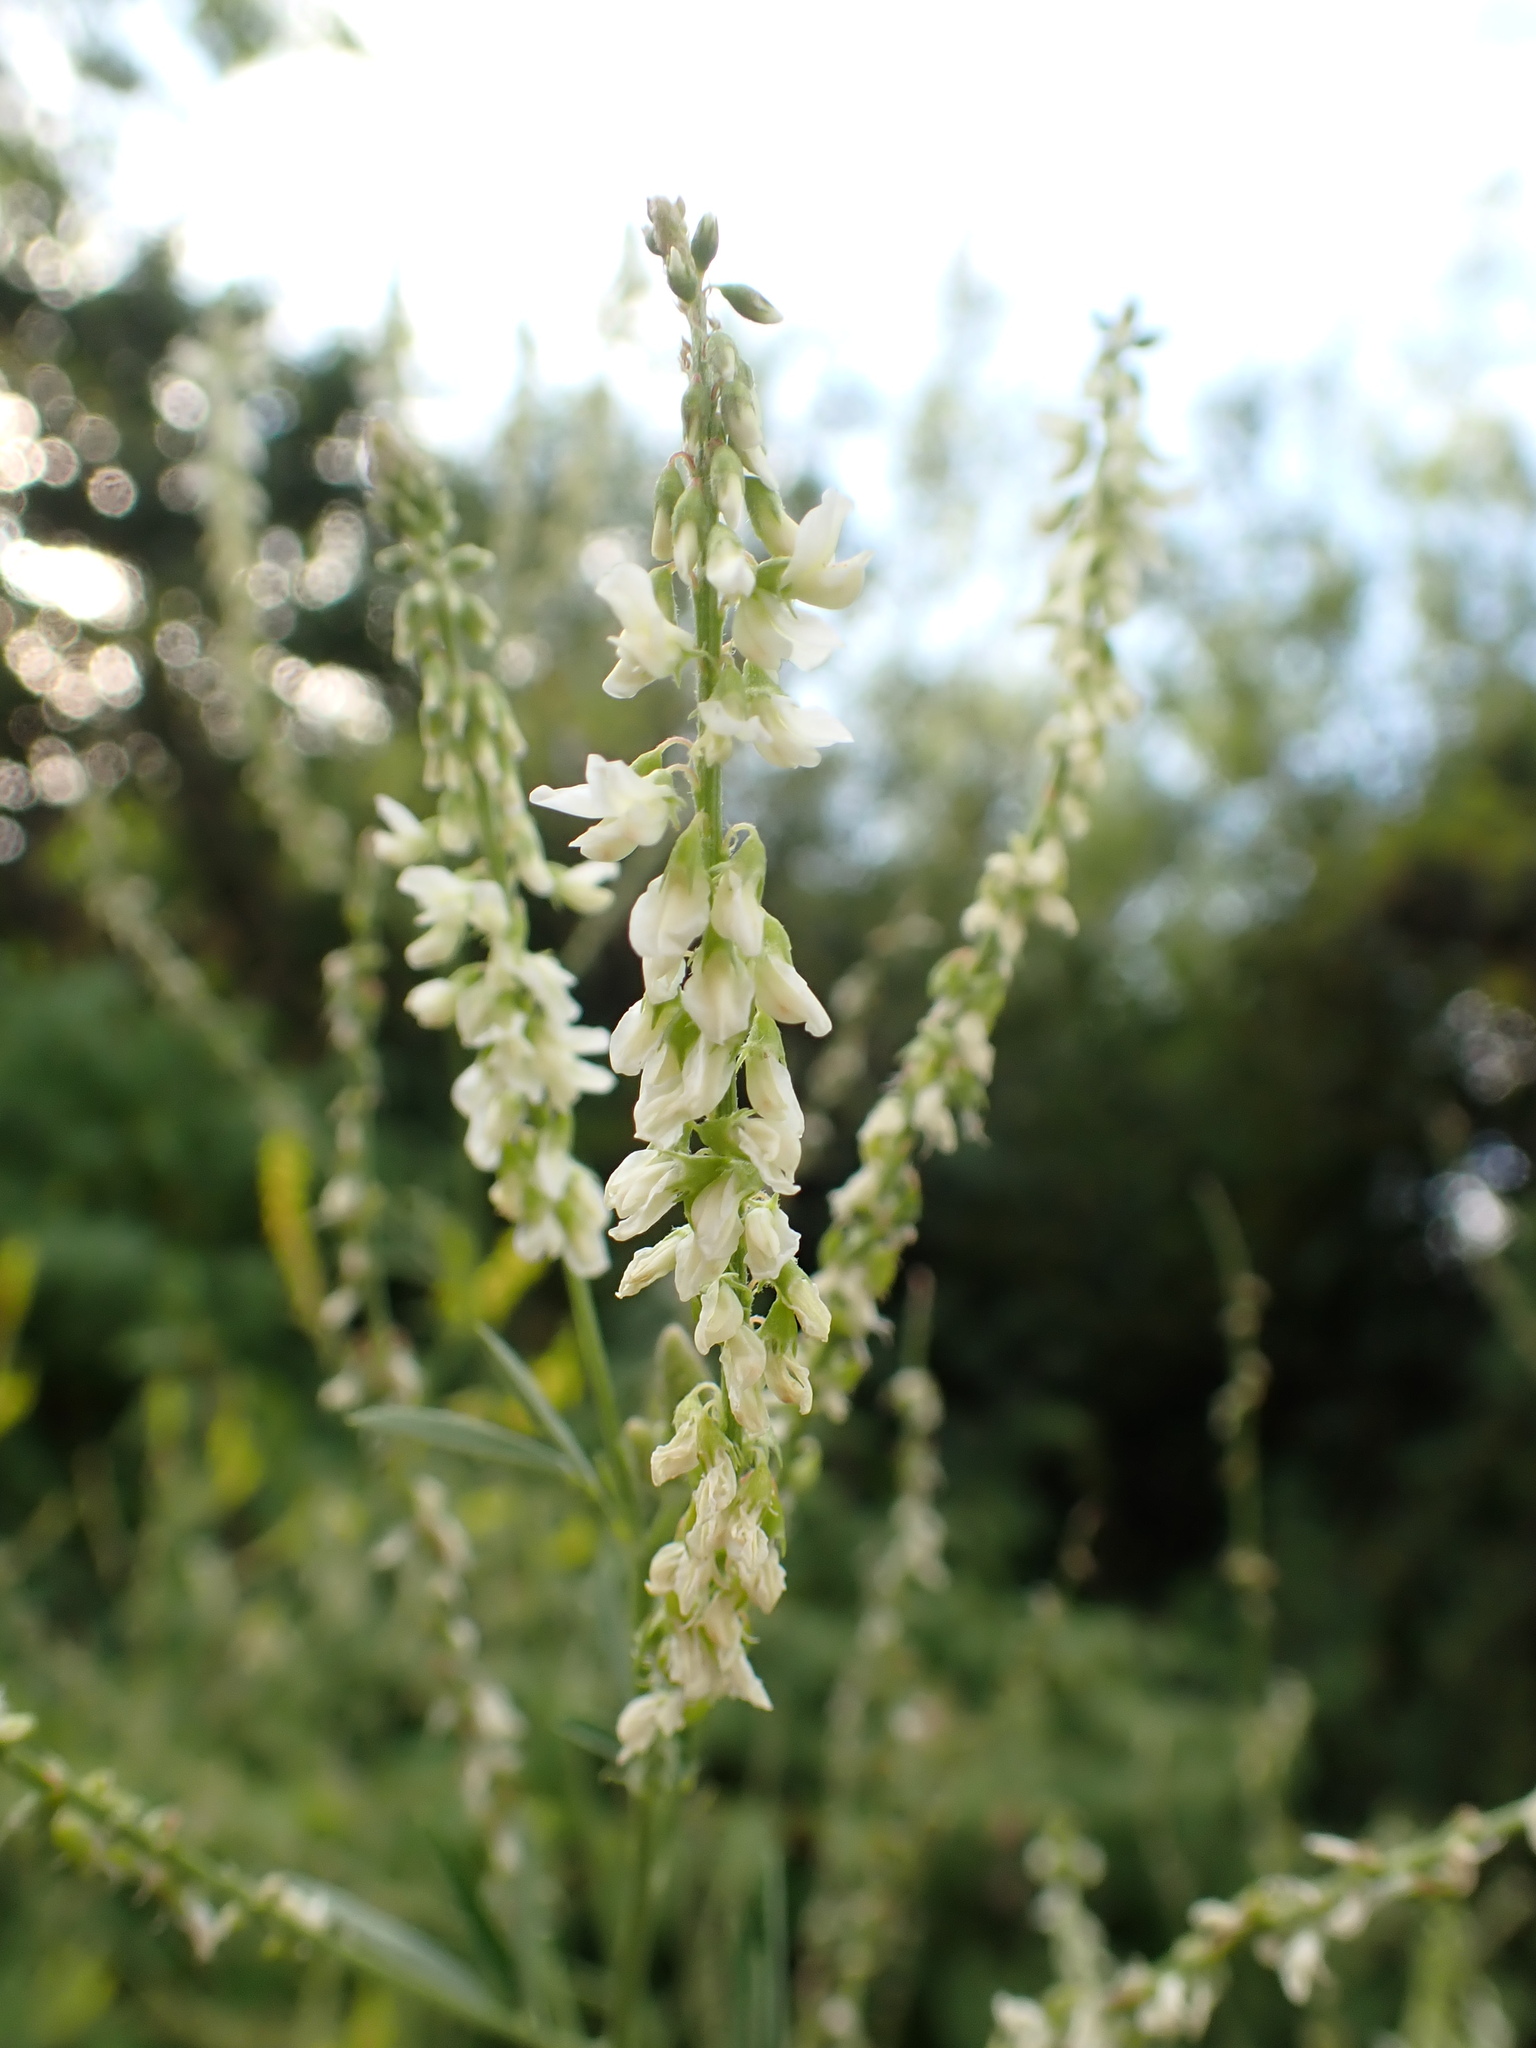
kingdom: Plantae
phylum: Tracheophyta
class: Magnoliopsida
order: Fabales
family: Fabaceae
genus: Melilotus
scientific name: Melilotus albus
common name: White melilot
